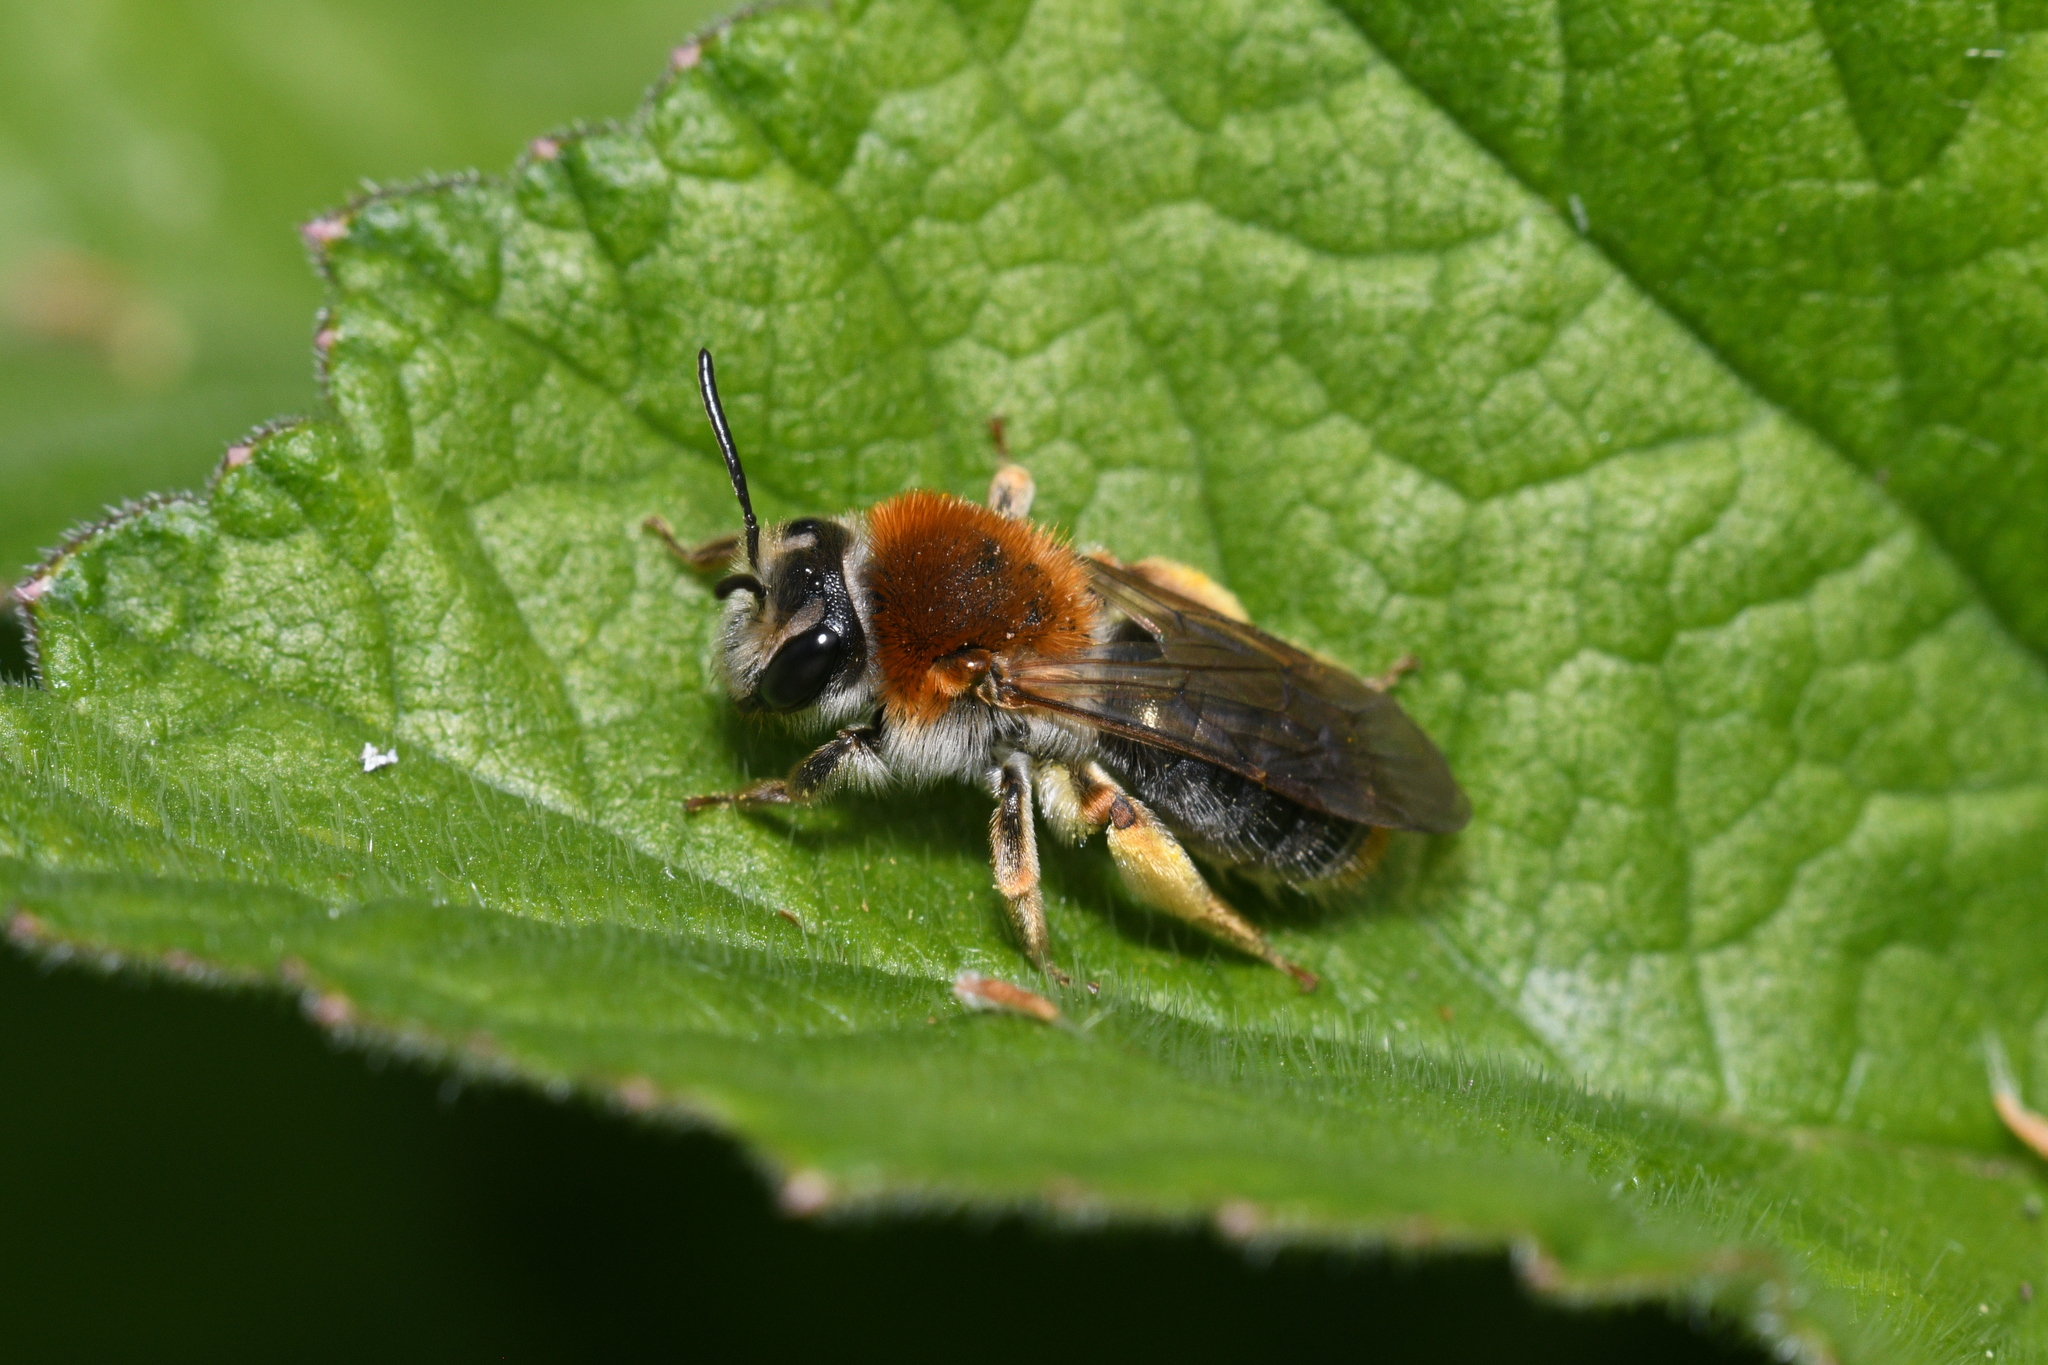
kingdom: Animalia
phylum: Arthropoda
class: Insecta
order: Hymenoptera
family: Andrenidae
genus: Andrena
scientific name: Andrena haemorrhoa
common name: Early mining bee
